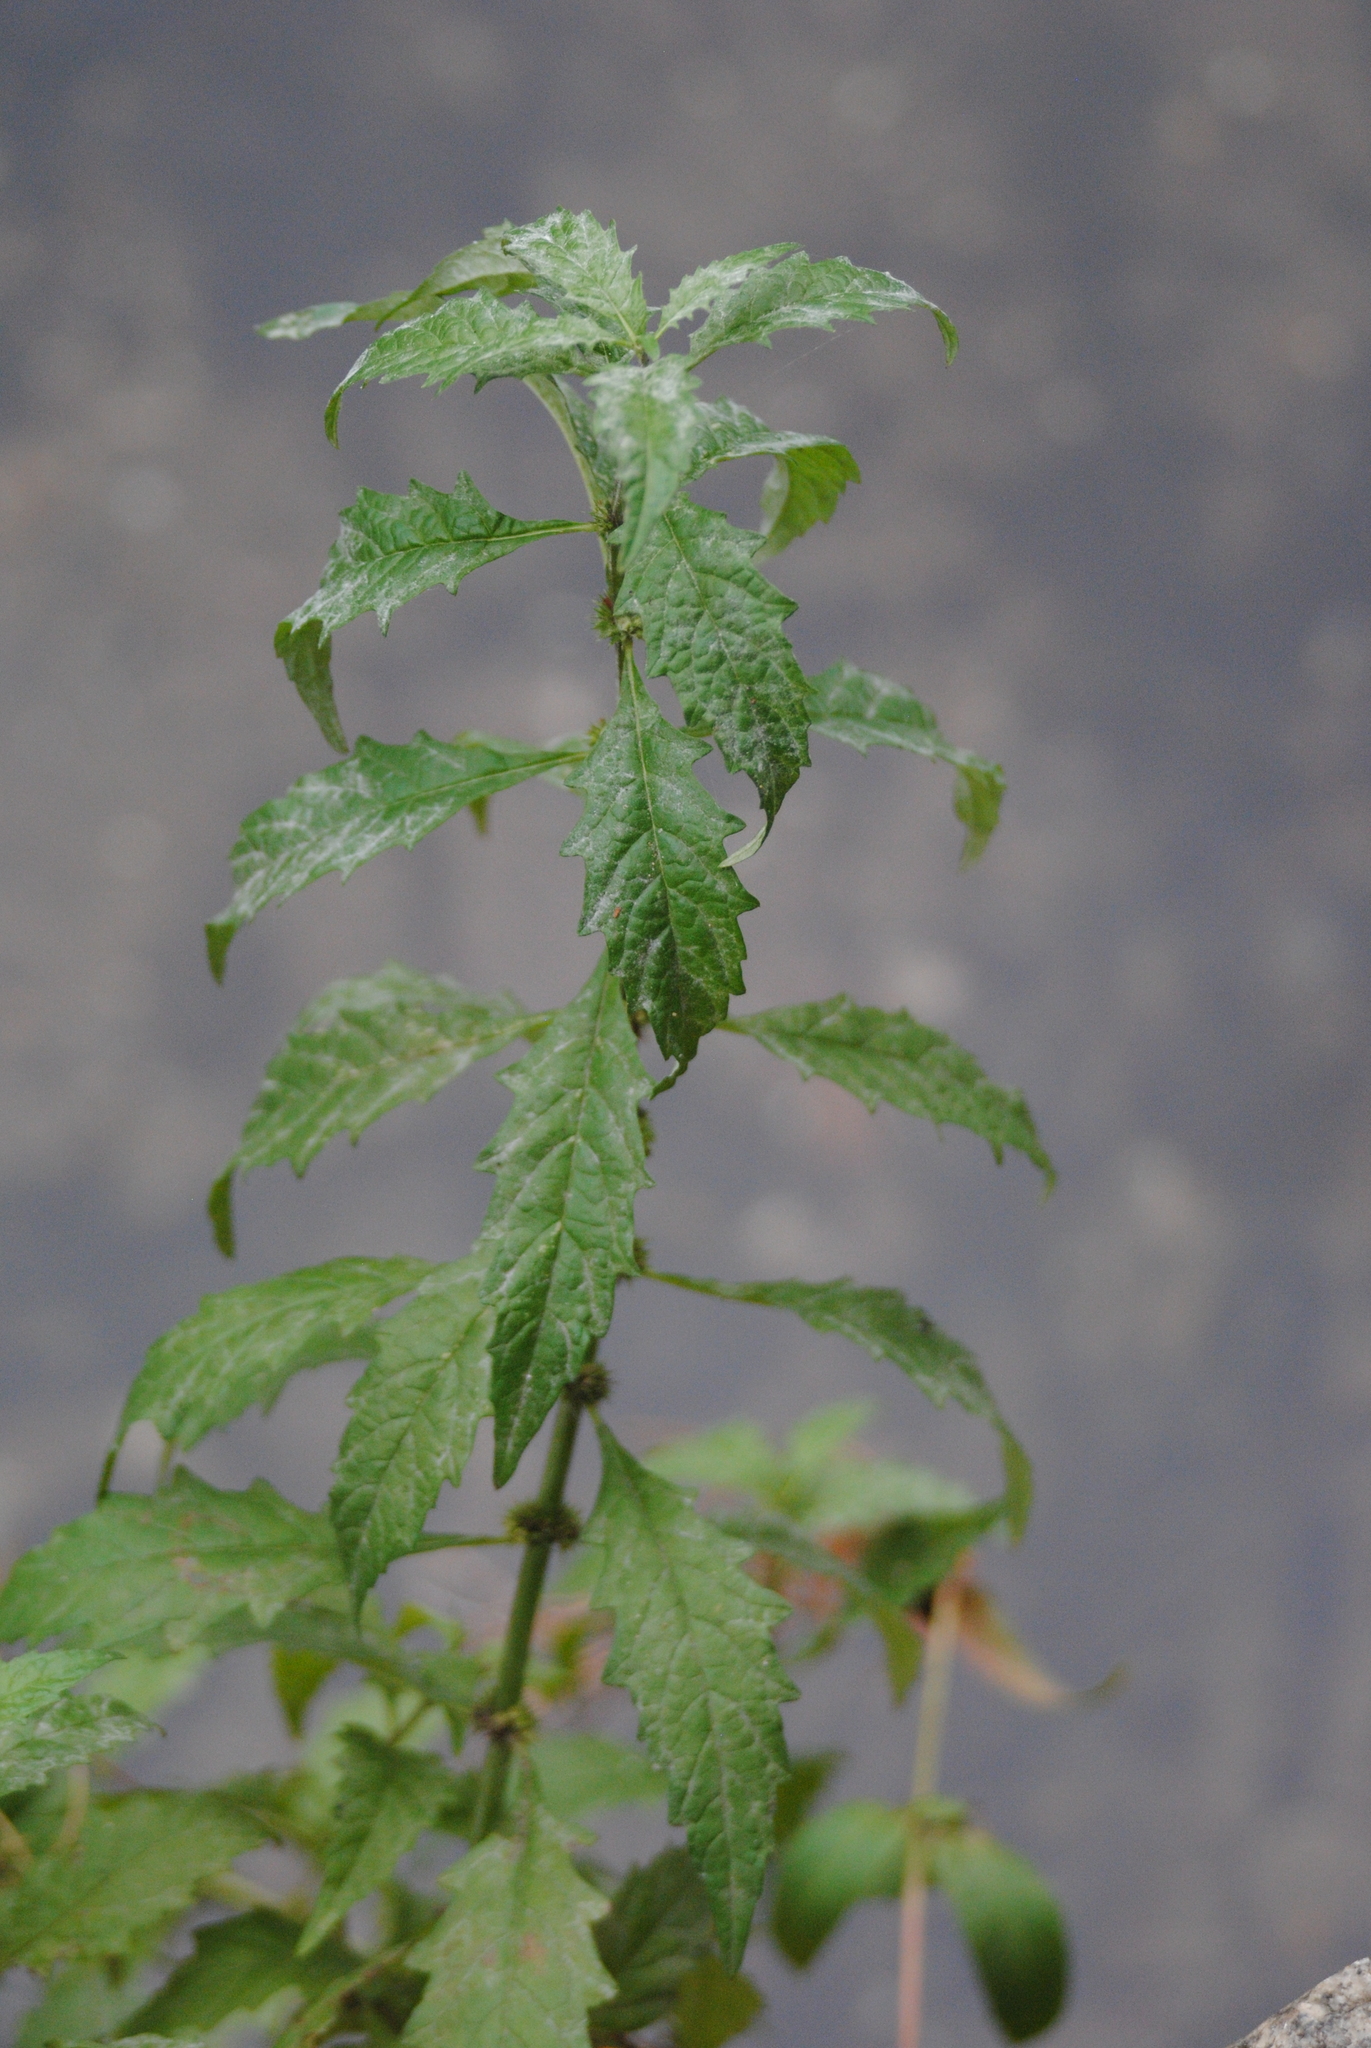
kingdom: Plantae
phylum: Tracheophyta
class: Magnoliopsida
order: Lamiales
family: Lamiaceae
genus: Lycopus
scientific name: Lycopus europaeus
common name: European bugleweed
